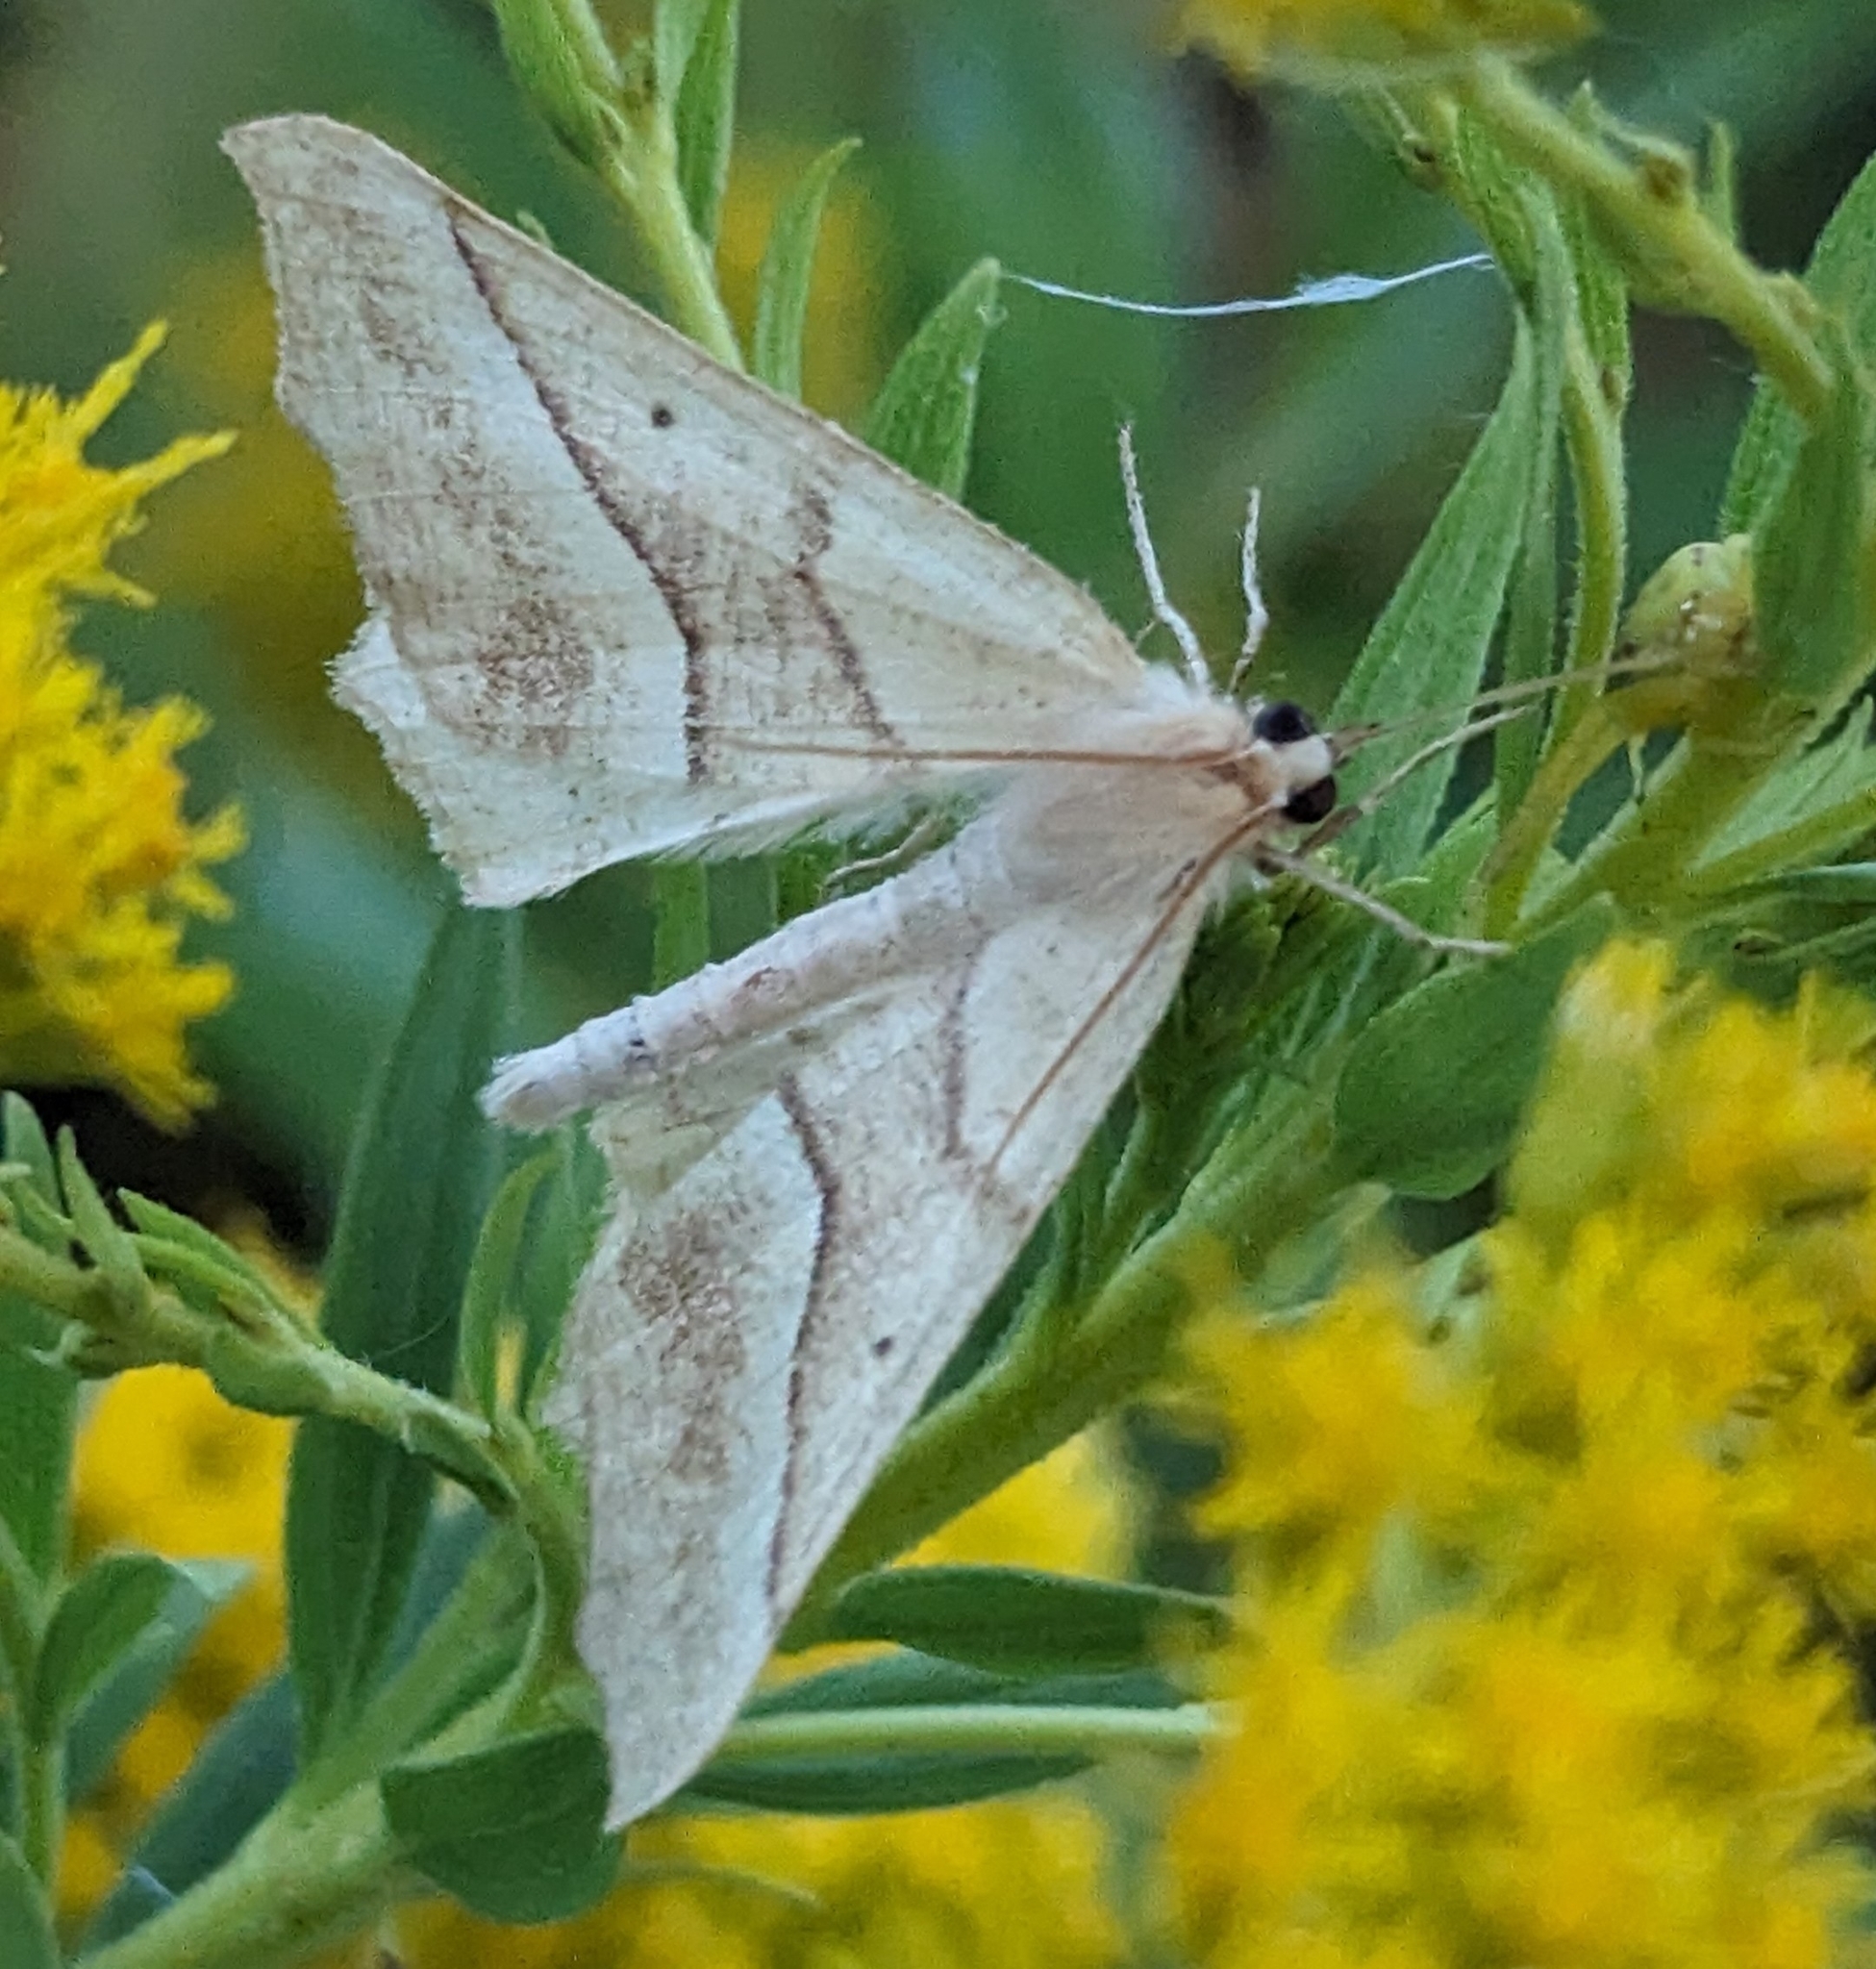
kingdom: Animalia
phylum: Arthropoda
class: Insecta
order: Lepidoptera
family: Geometridae
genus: Synaxis
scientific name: Synaxis jubararia
